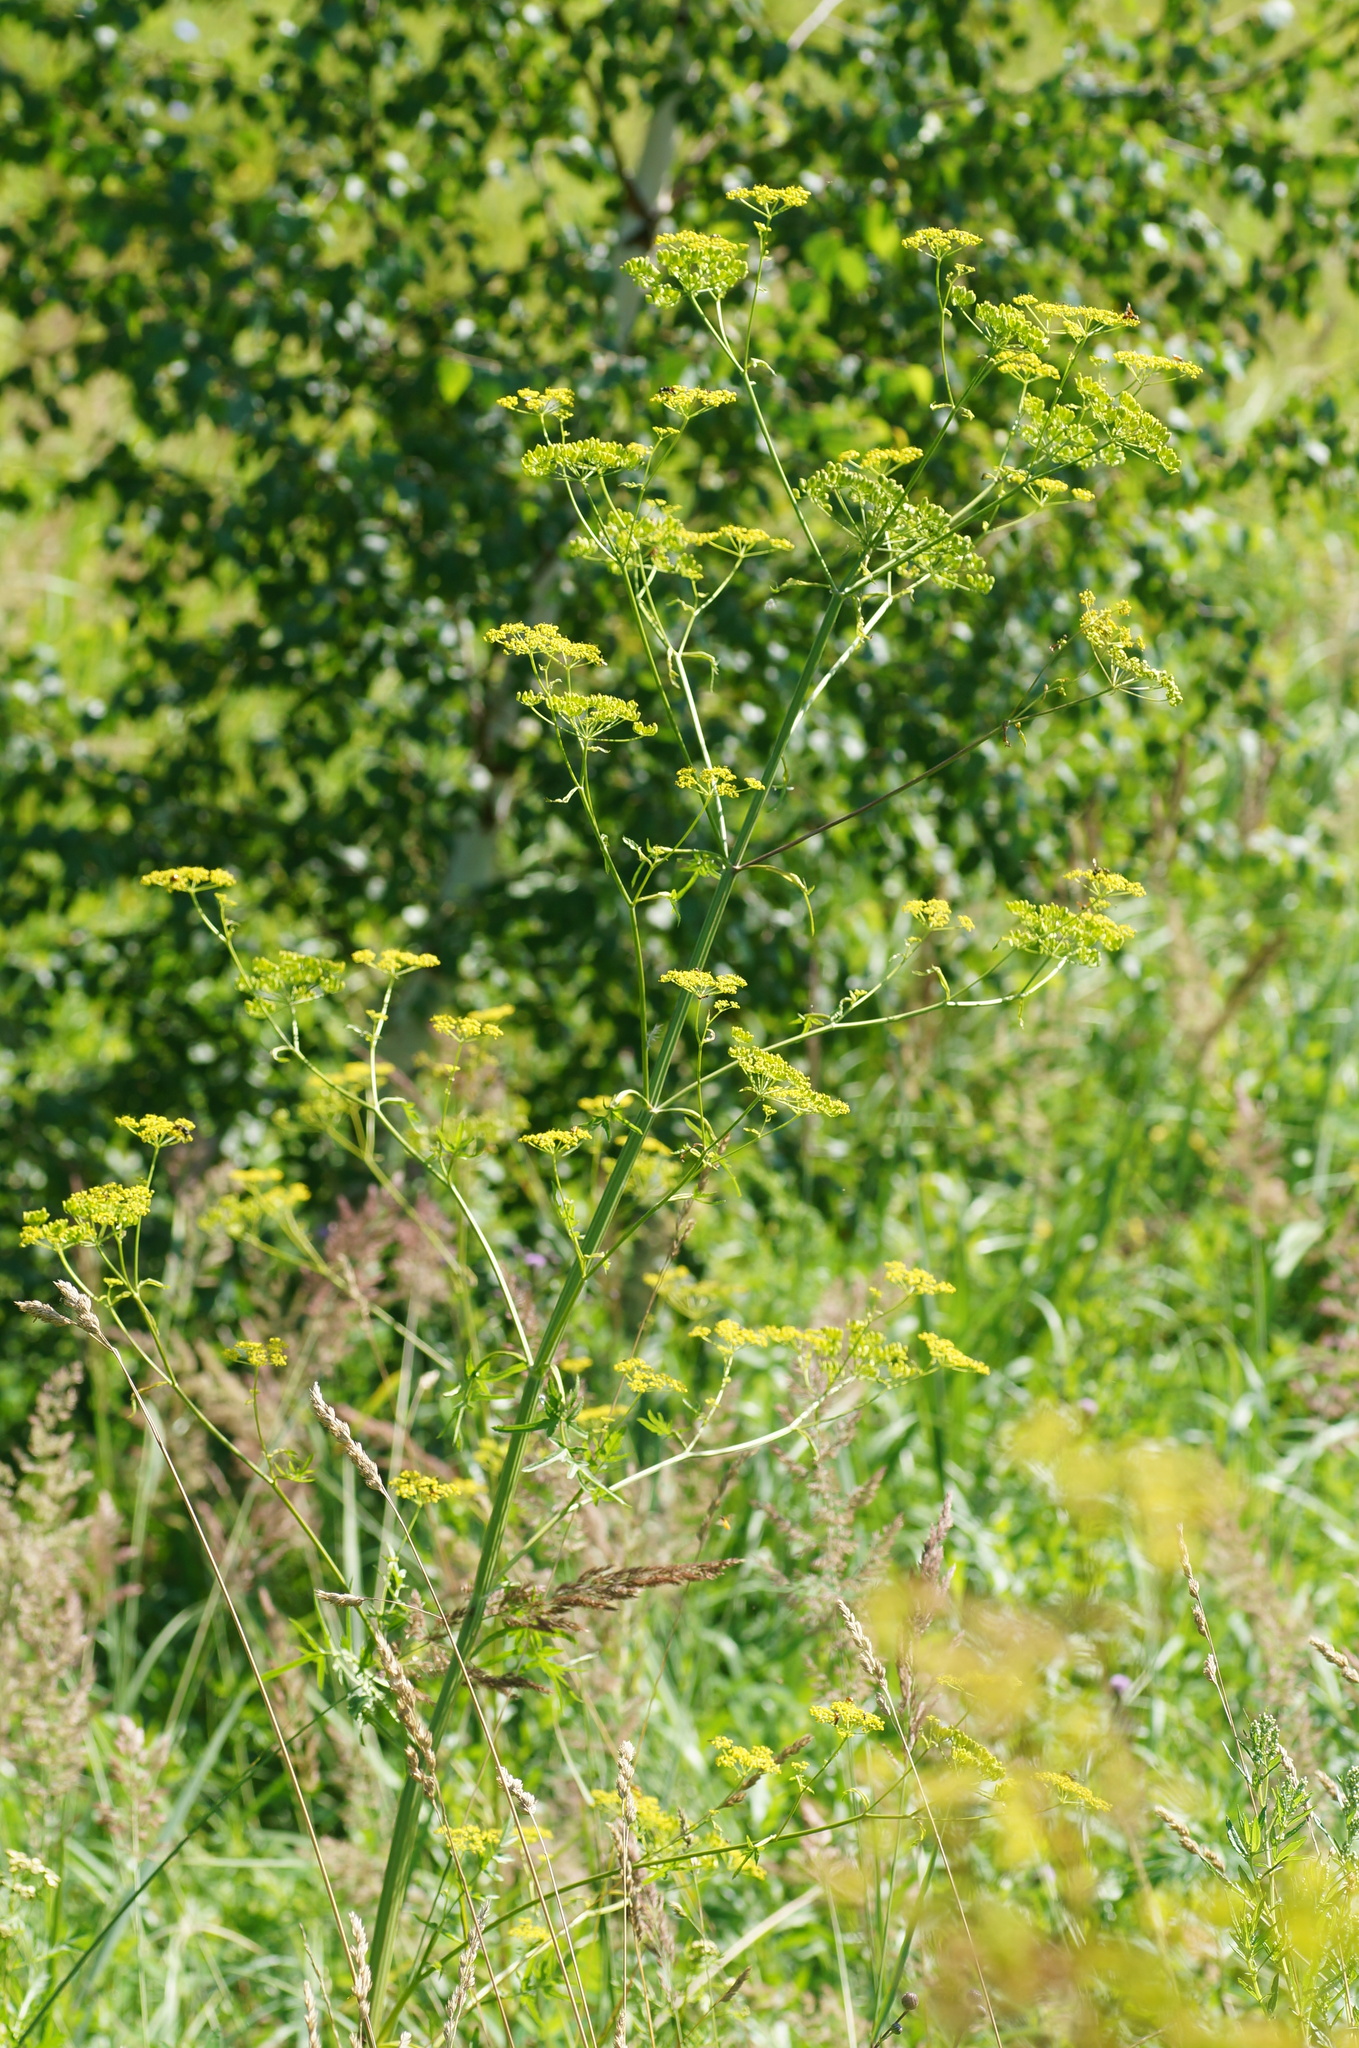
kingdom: Plantae
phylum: Tracheophyta
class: Magnoliopsida
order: Apiales
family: Apiaceae
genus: Pastinaca
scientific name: Pastinaca sativa
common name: Wild parsnip
